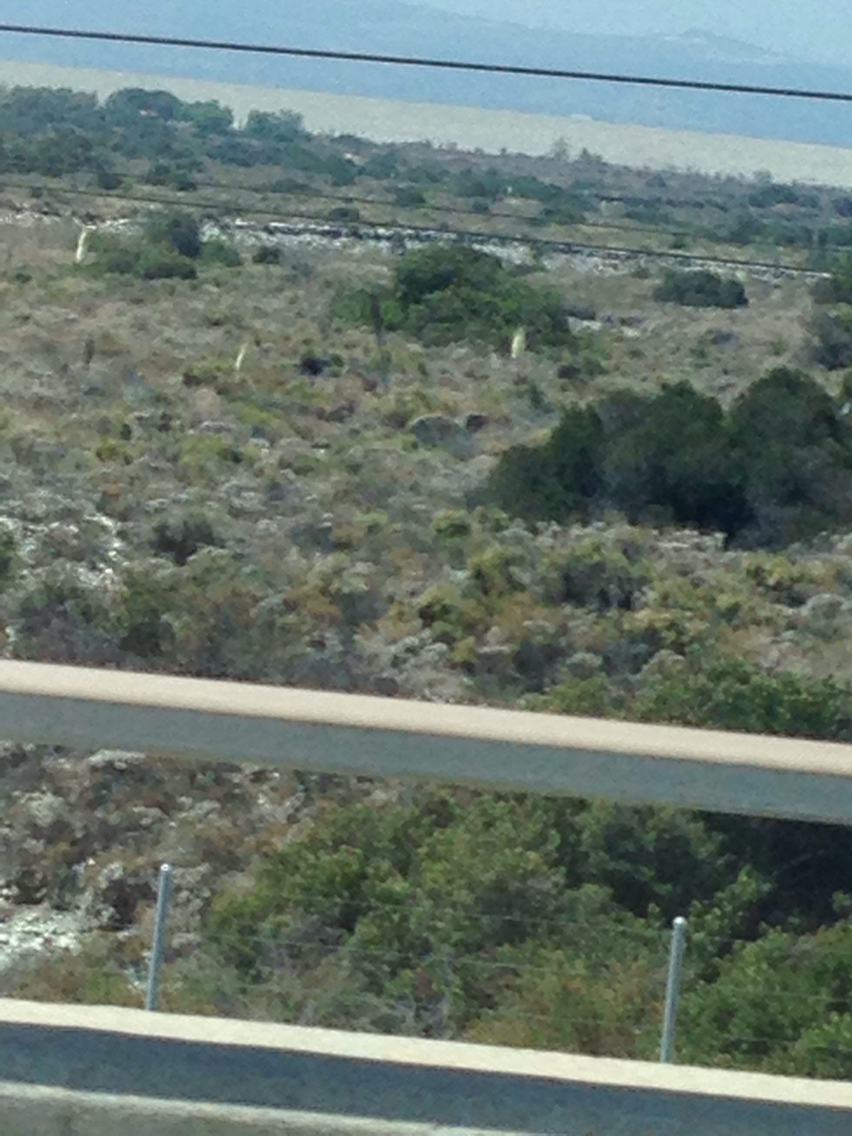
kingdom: Plantae
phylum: Tracheophyta
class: Liliopsida
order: Asparagales
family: Asparagaceae
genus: Hesperoyucca
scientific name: Hesperoyucca whipplei
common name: Our lord's-candle
